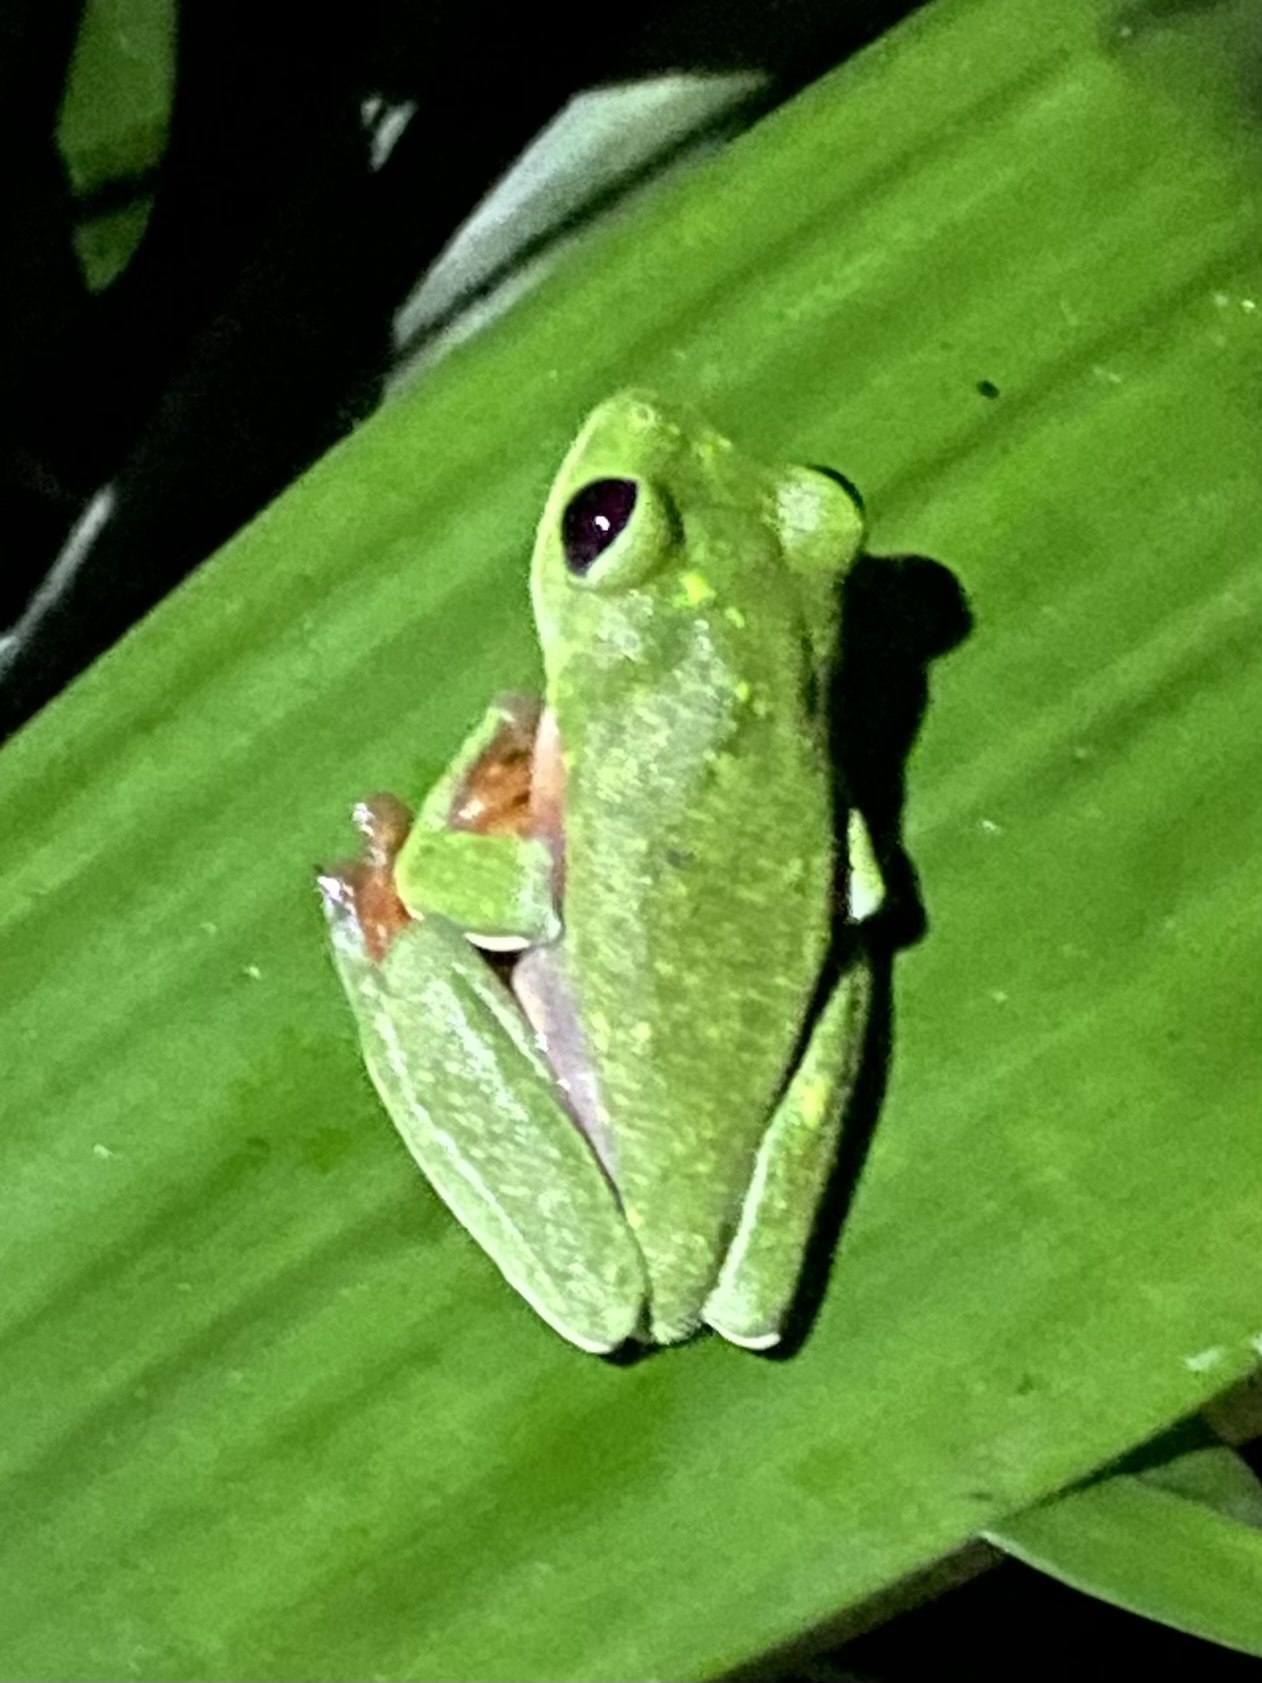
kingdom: Animalia
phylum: Chordata
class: Amphibia
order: Anura
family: Phyllomedusidae
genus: Agalychnis
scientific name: Agalychnis moreletii
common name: Black-eyed leaf frog
